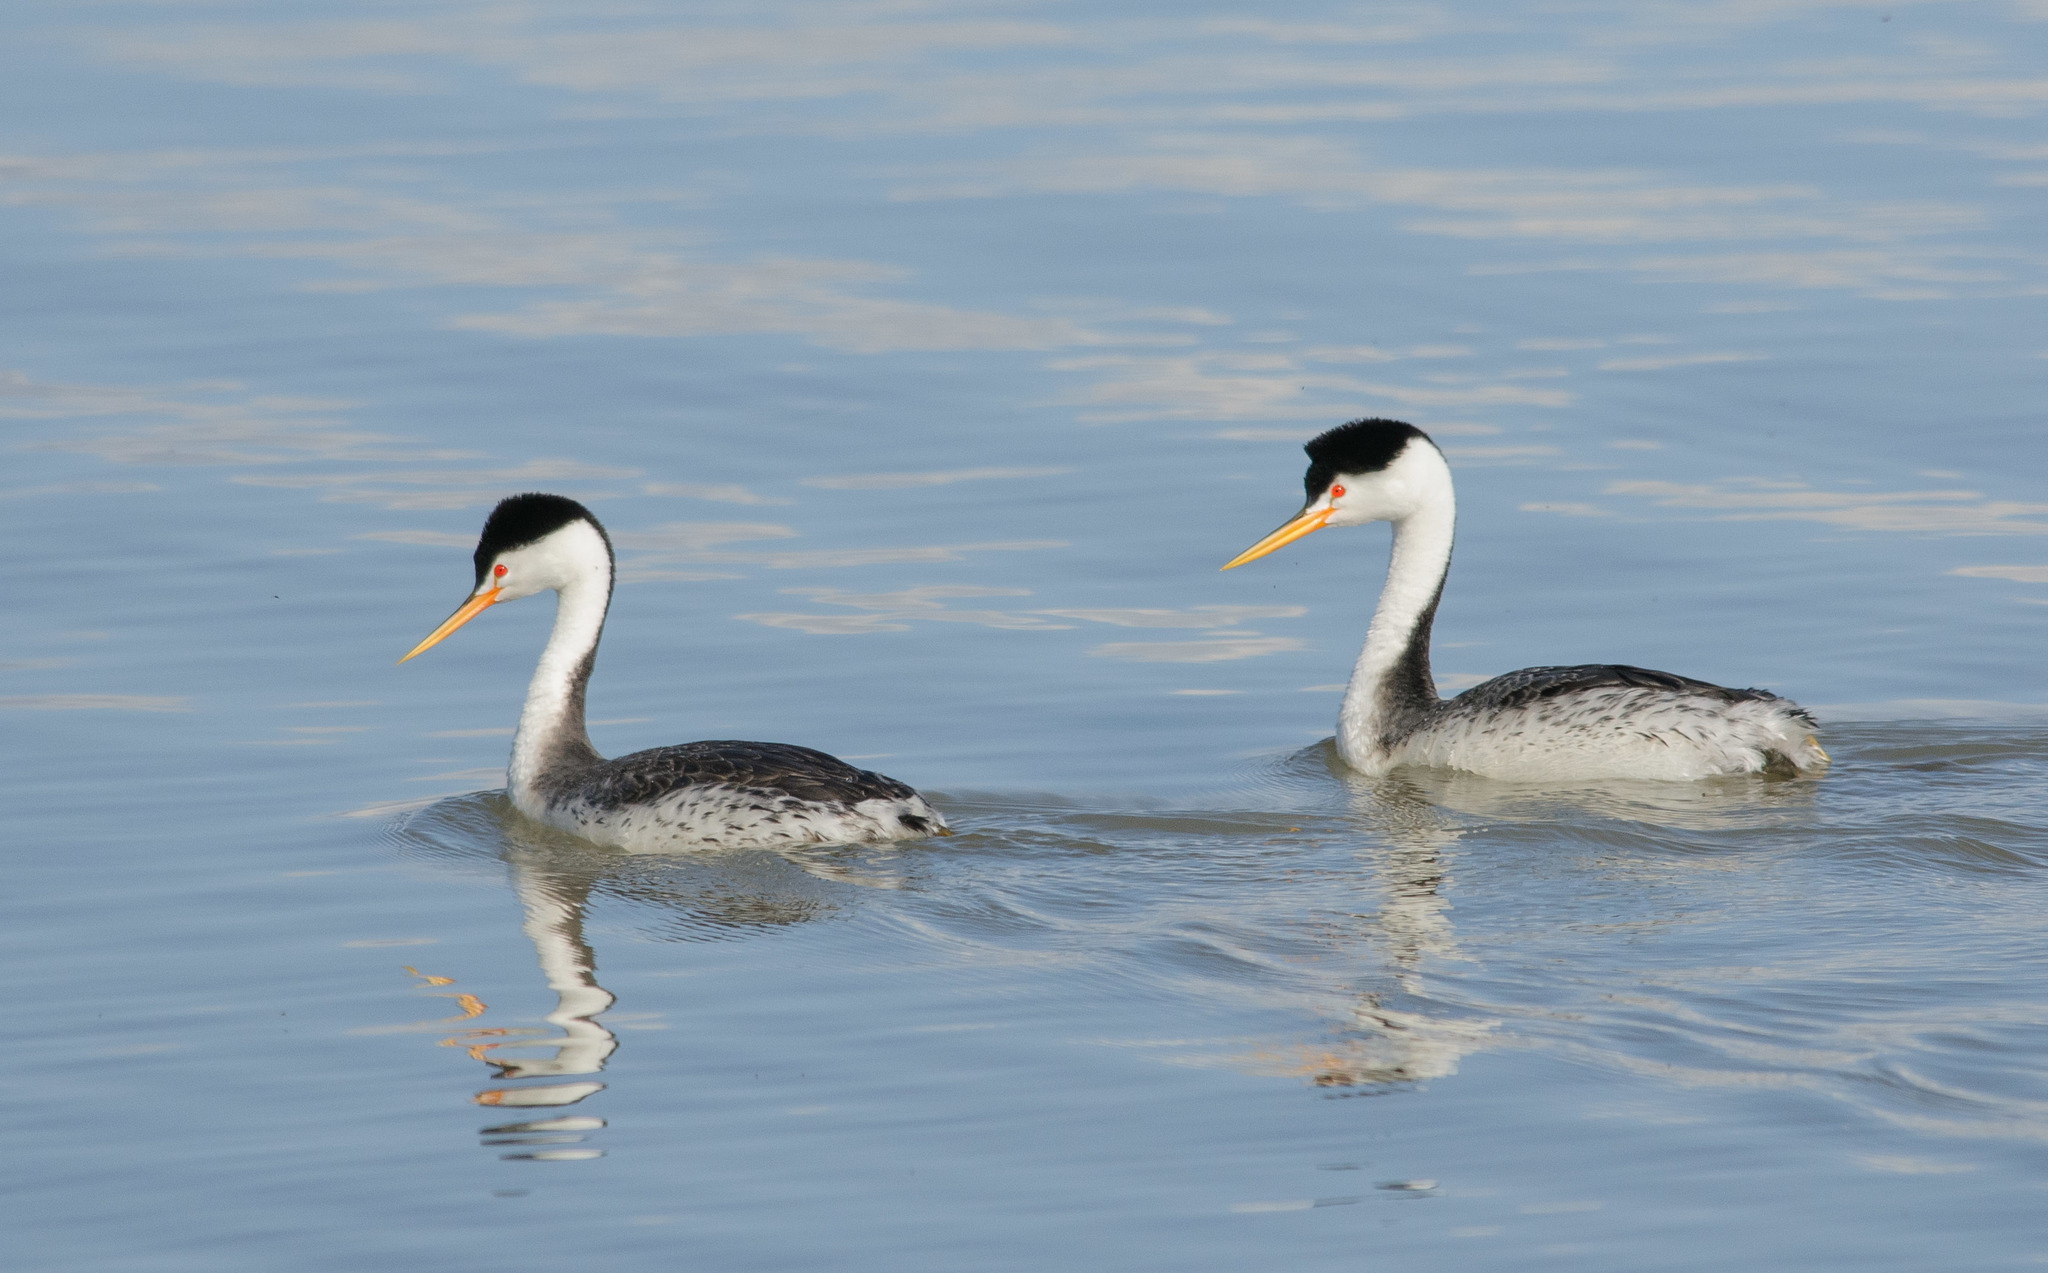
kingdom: Animalia
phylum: Chordata
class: Aves
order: Podicipediformes
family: Podicipedidae
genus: Aechmophorus
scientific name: Aechmophorus clarkii
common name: Clark's grebe
